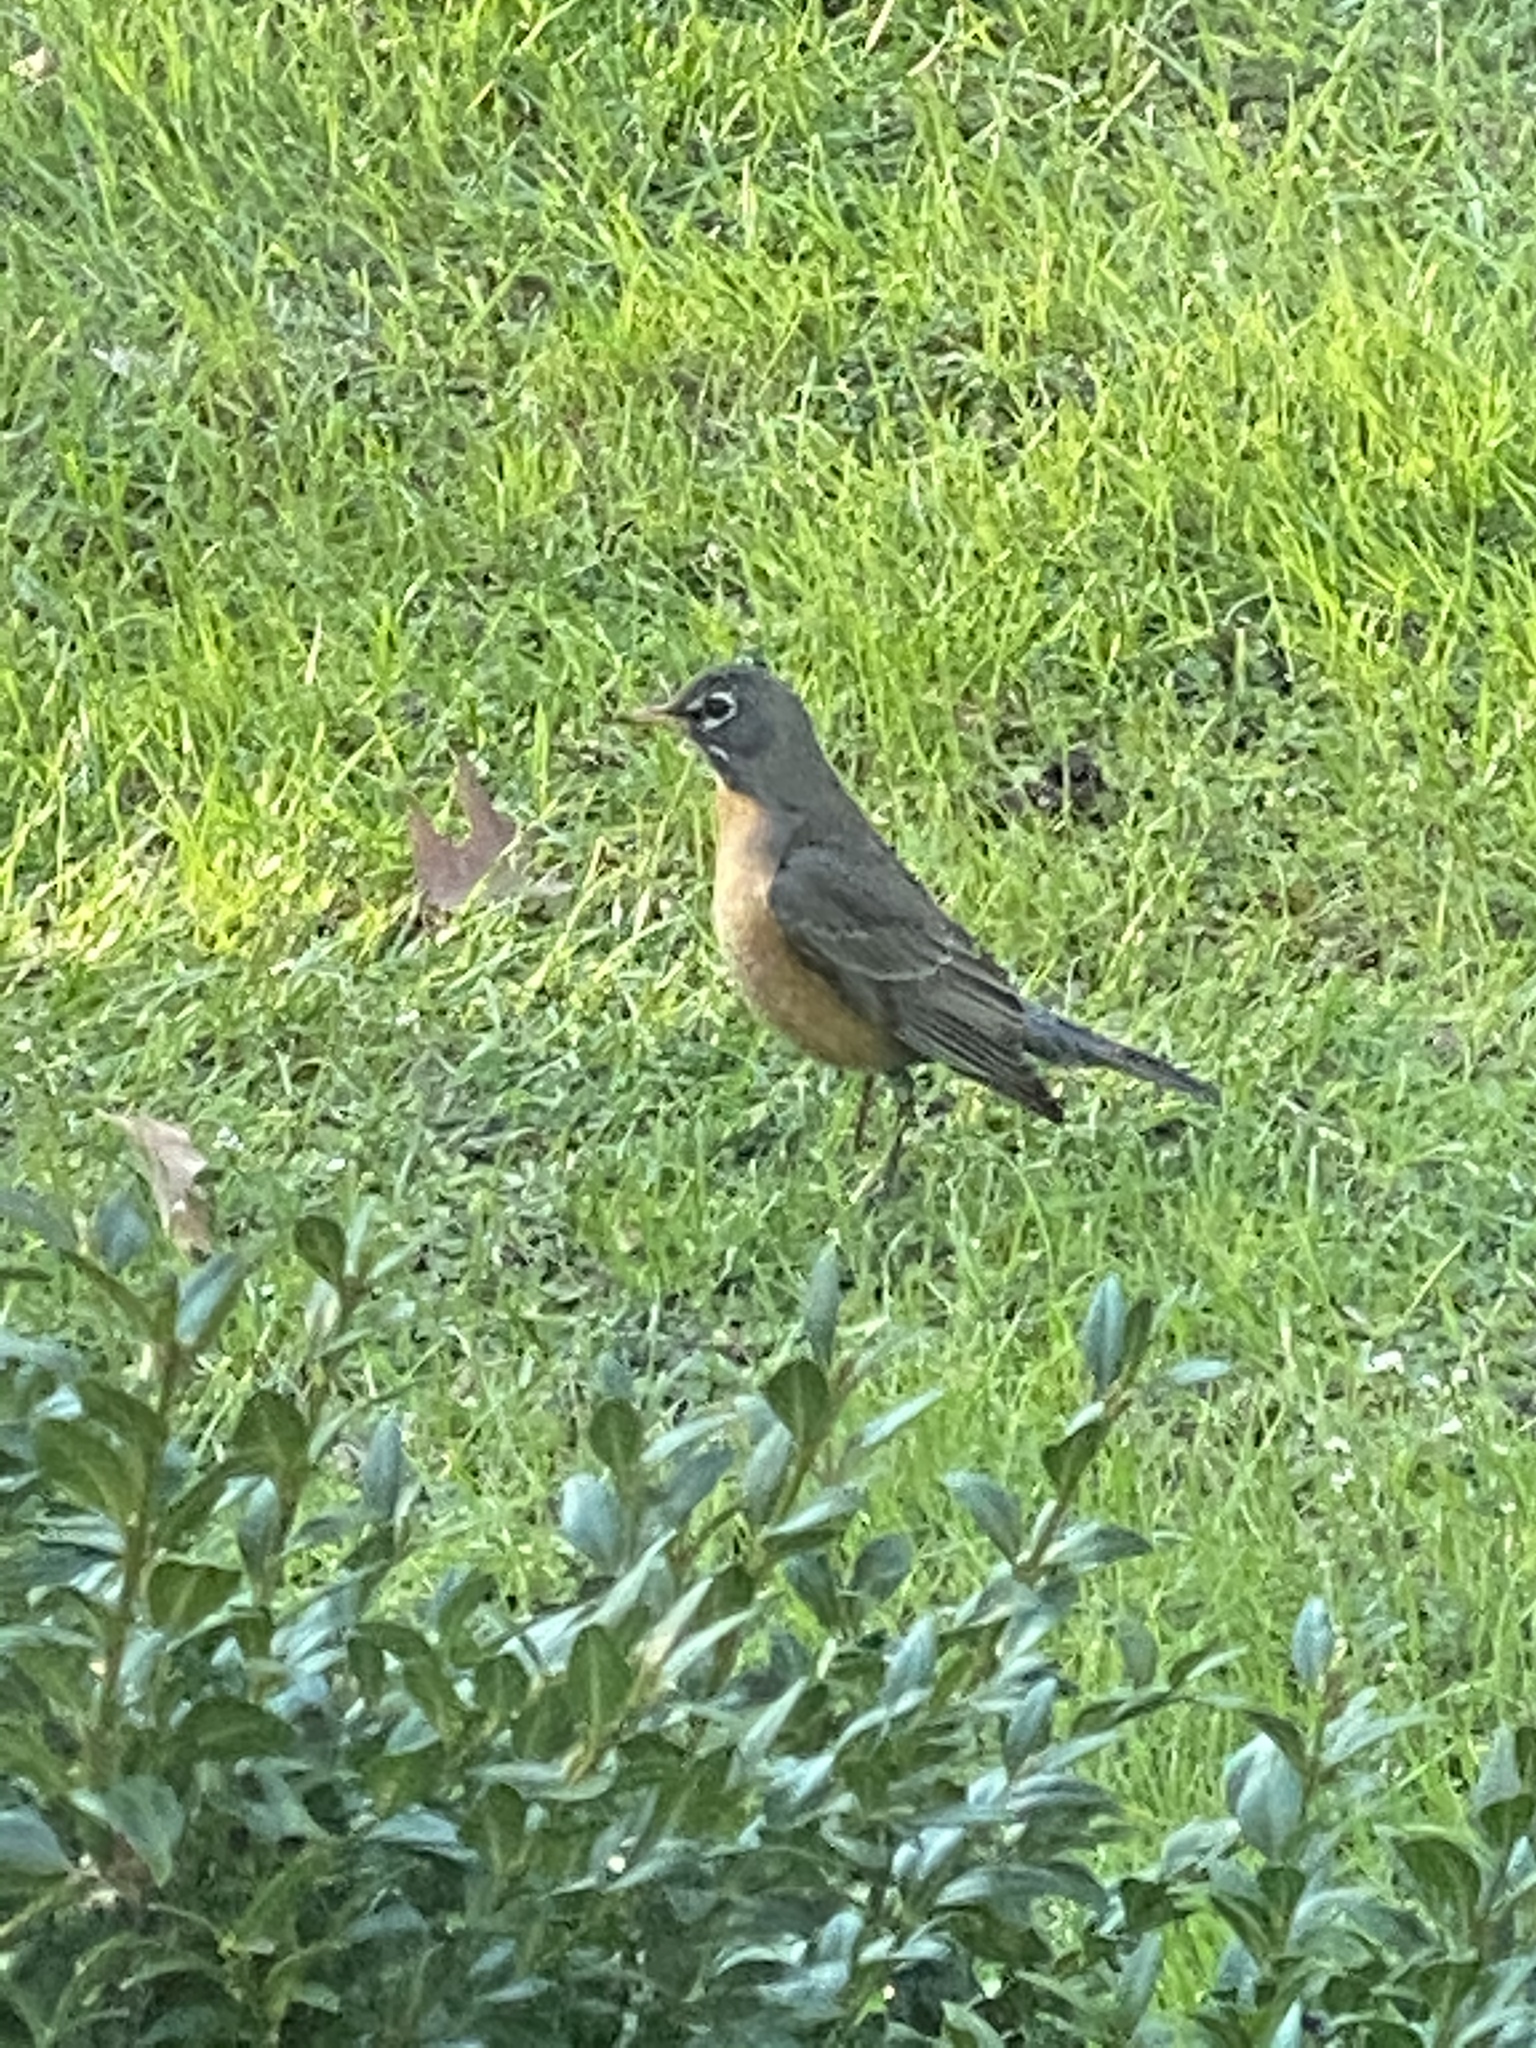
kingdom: Animalia
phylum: Chordata
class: Aves
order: Passeriformes
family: Turdidae
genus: Turdus
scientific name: Turdus migratorius
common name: American robin
